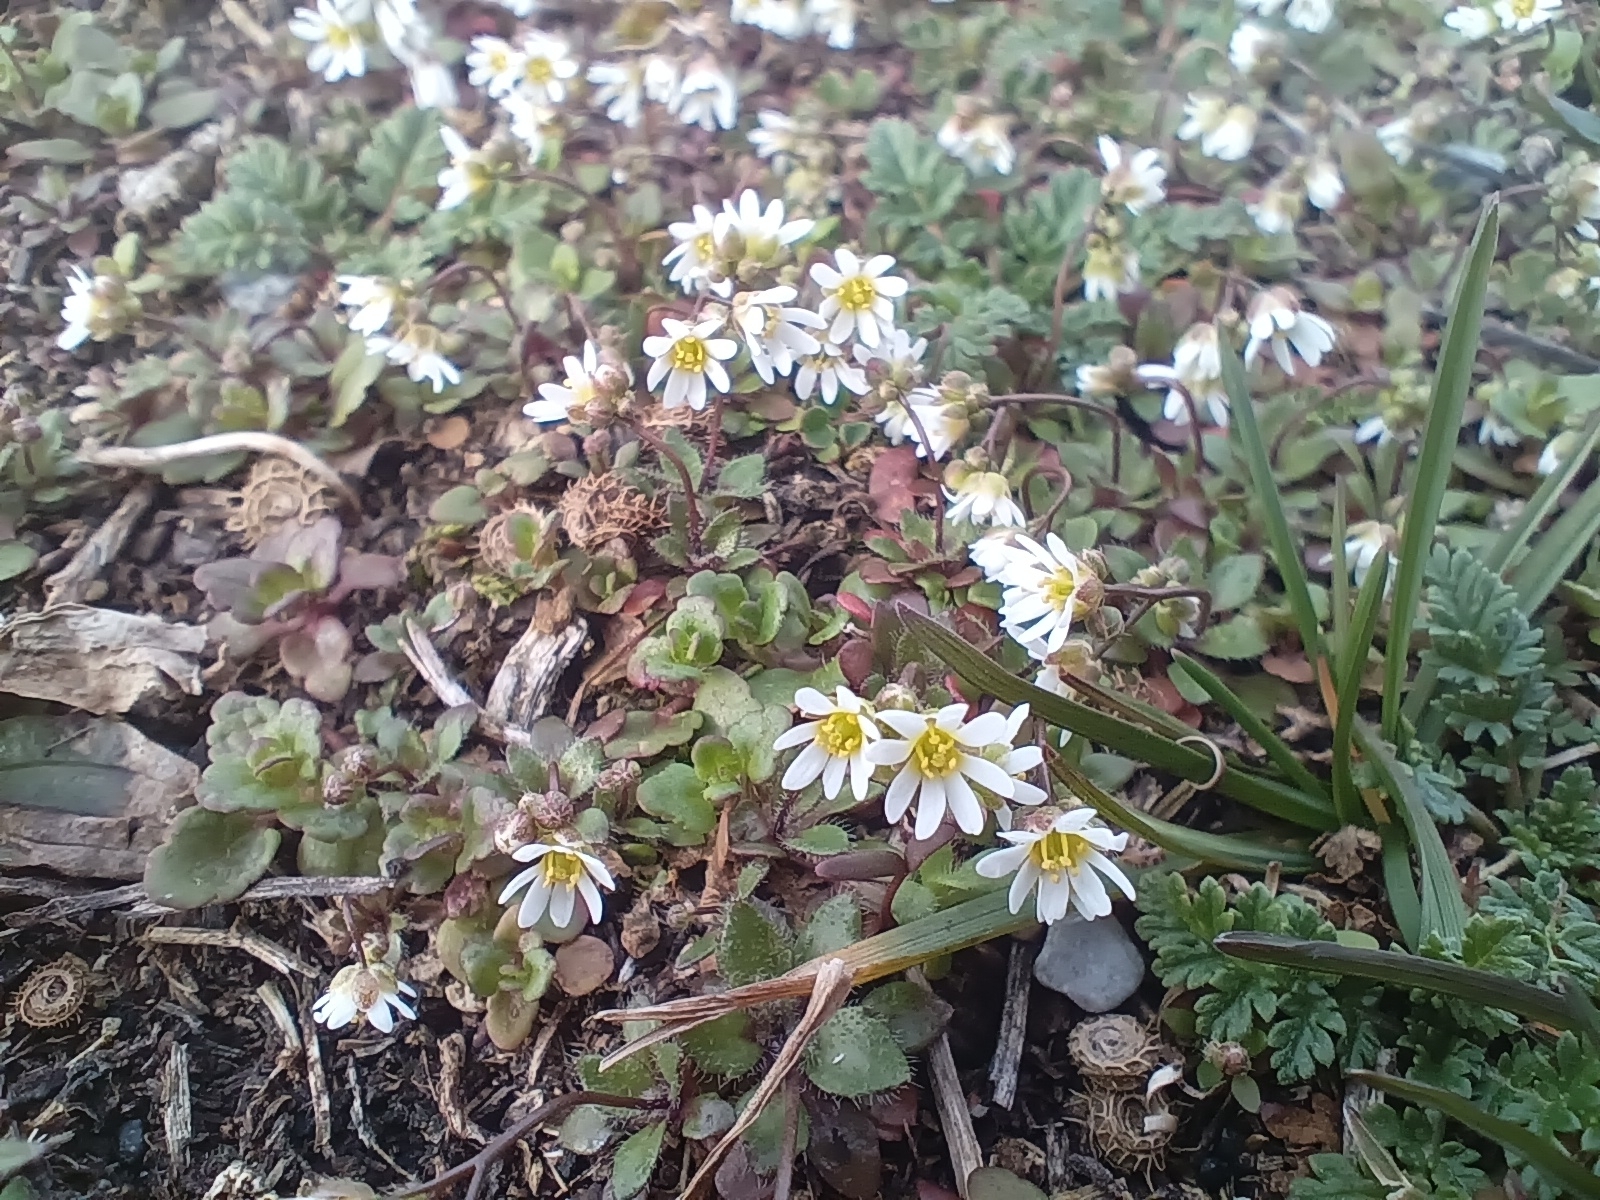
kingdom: Plantae
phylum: Tracheophyta
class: Magnoliopsida
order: Brassicales
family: Brassicaceae
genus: Draba
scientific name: Draba verna
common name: Spring draba
